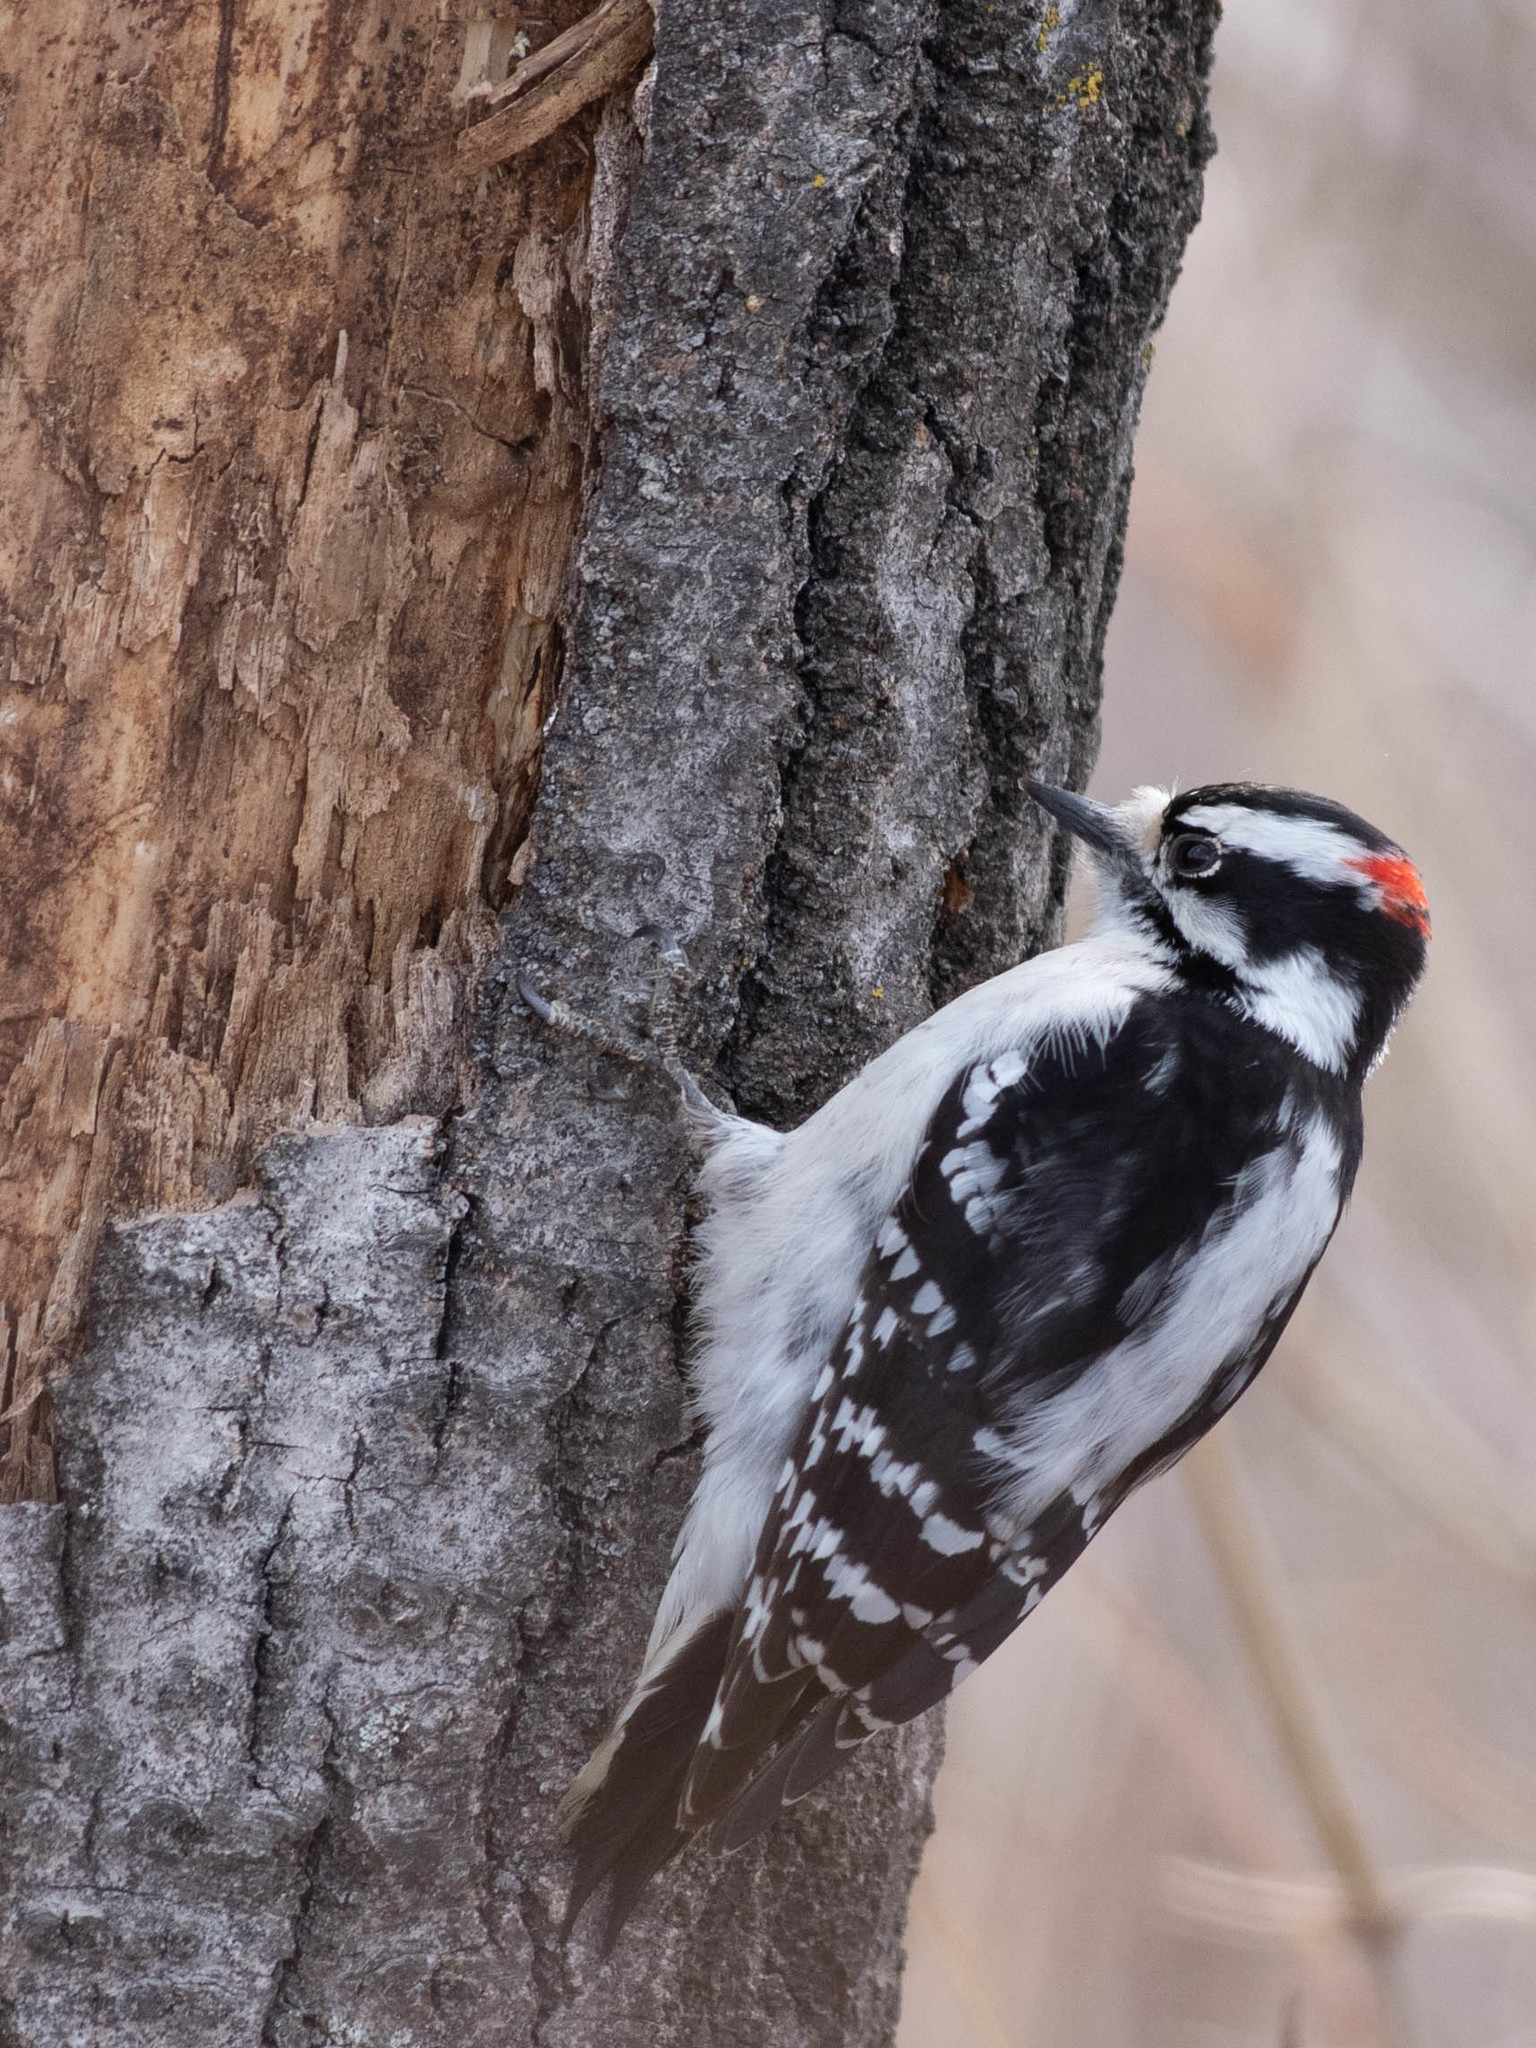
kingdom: Animalia
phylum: Chordata
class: Aves
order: Piciformes
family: Picidae
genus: Dryobates
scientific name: Dryobates pubescens
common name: Downy woodpecker
